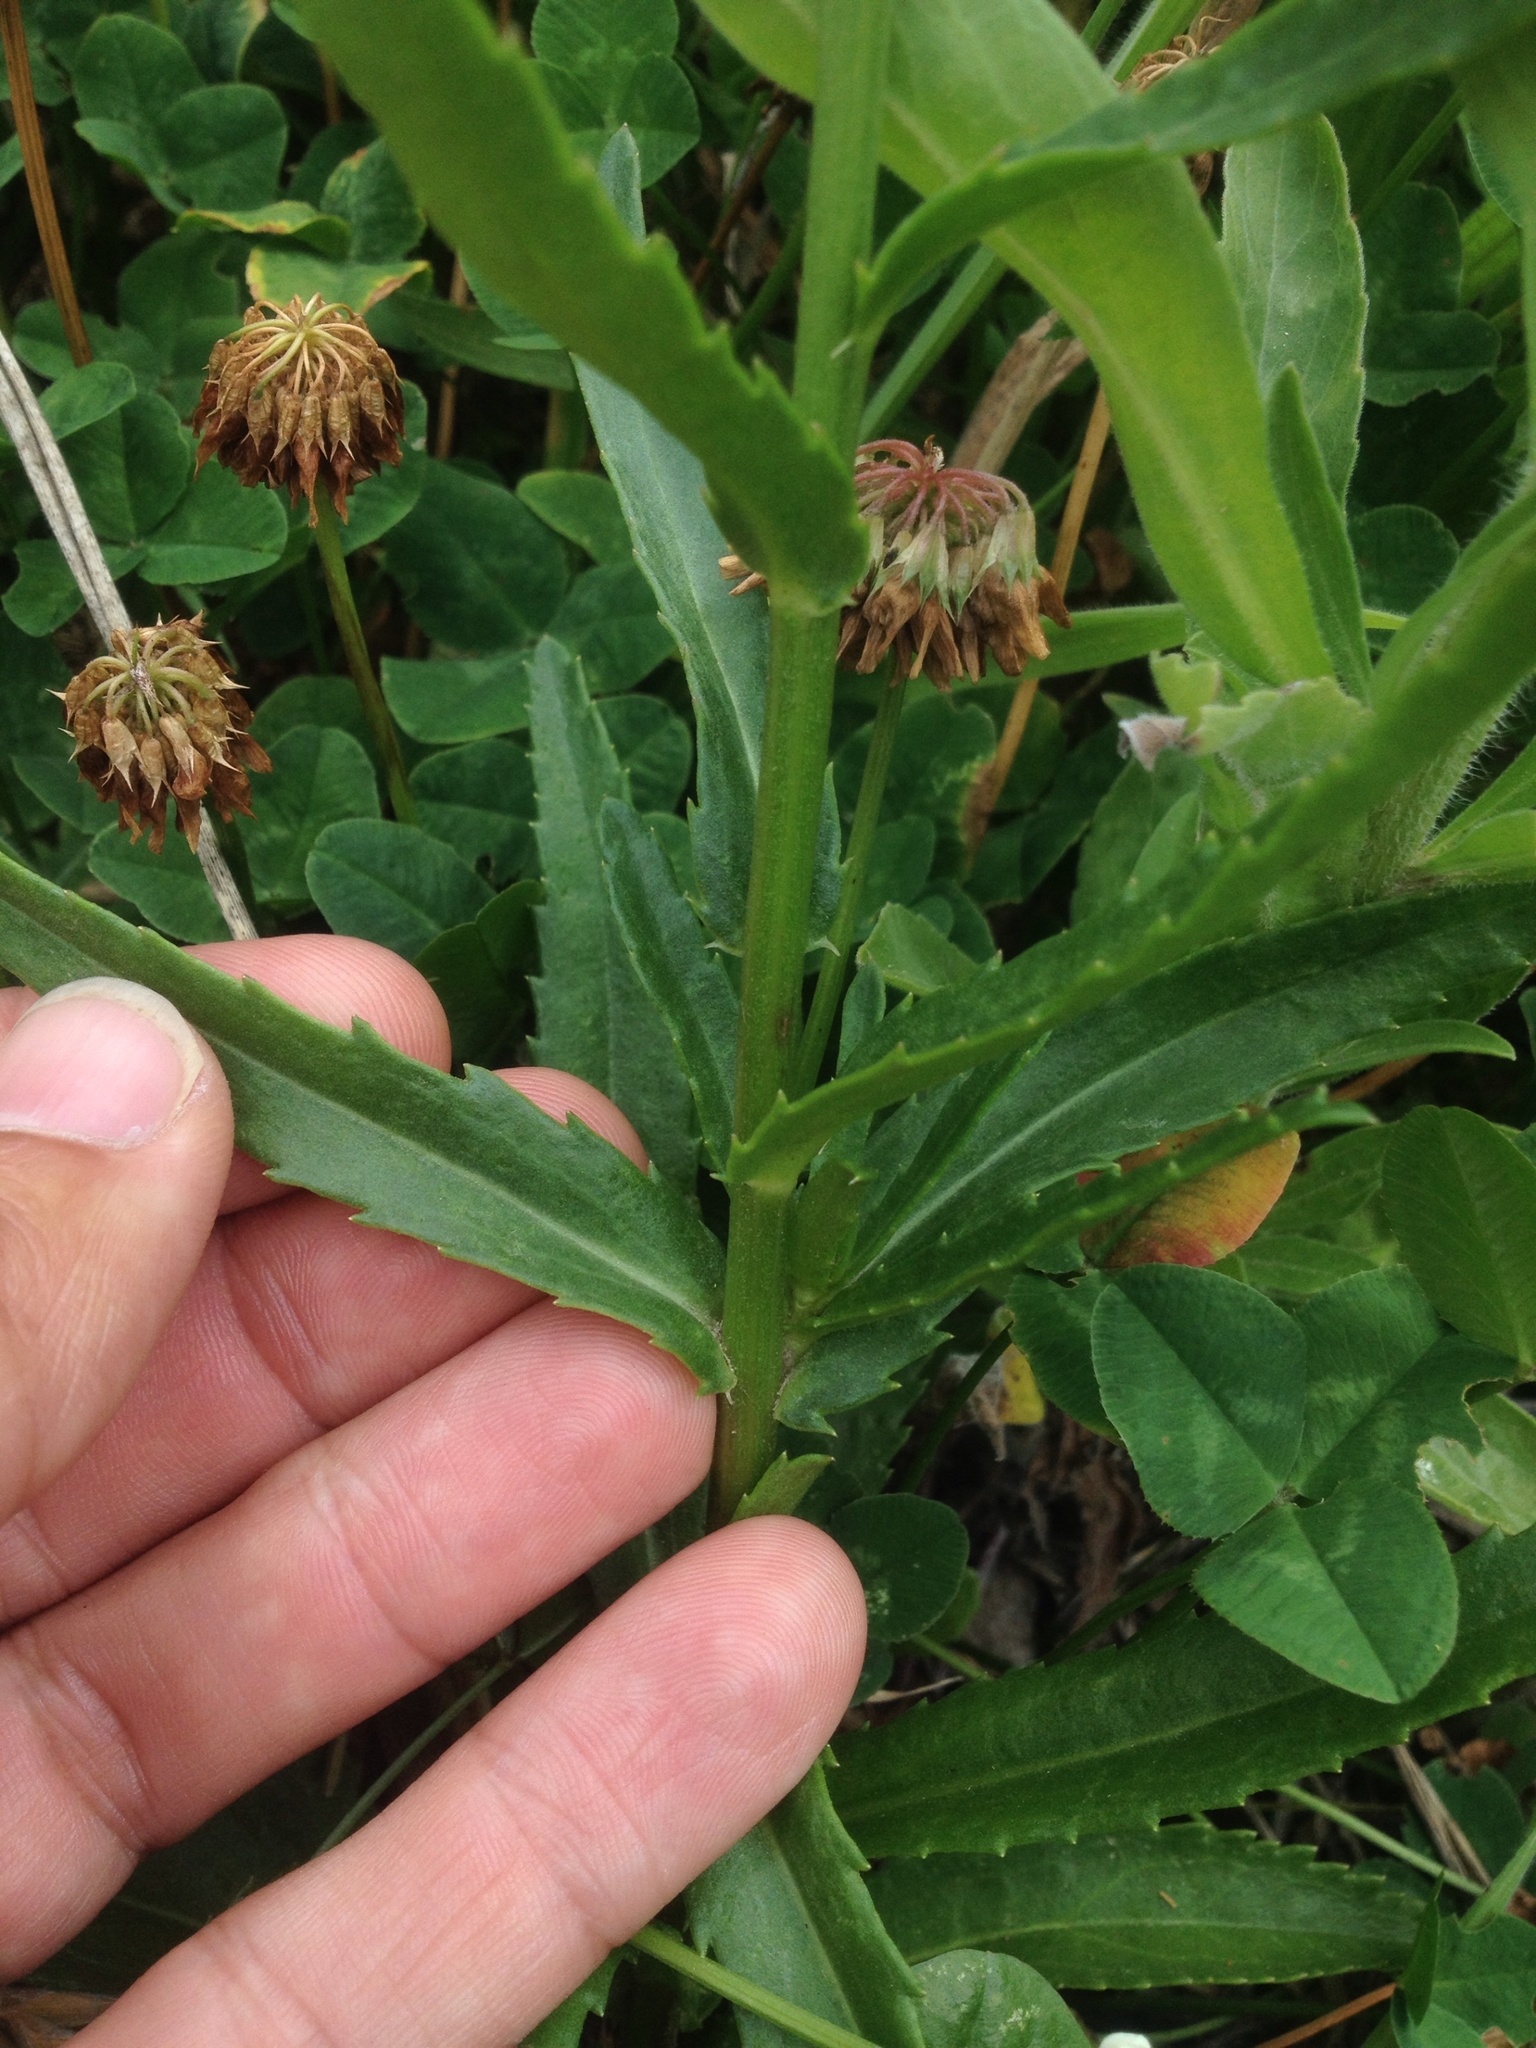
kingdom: Plantae
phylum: Tracheophyta
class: Magnoliopsida
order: Asterales
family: Asteraceae
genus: Leucanthemum
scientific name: Leucanthemum maximum
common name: Max chrysanthemum
